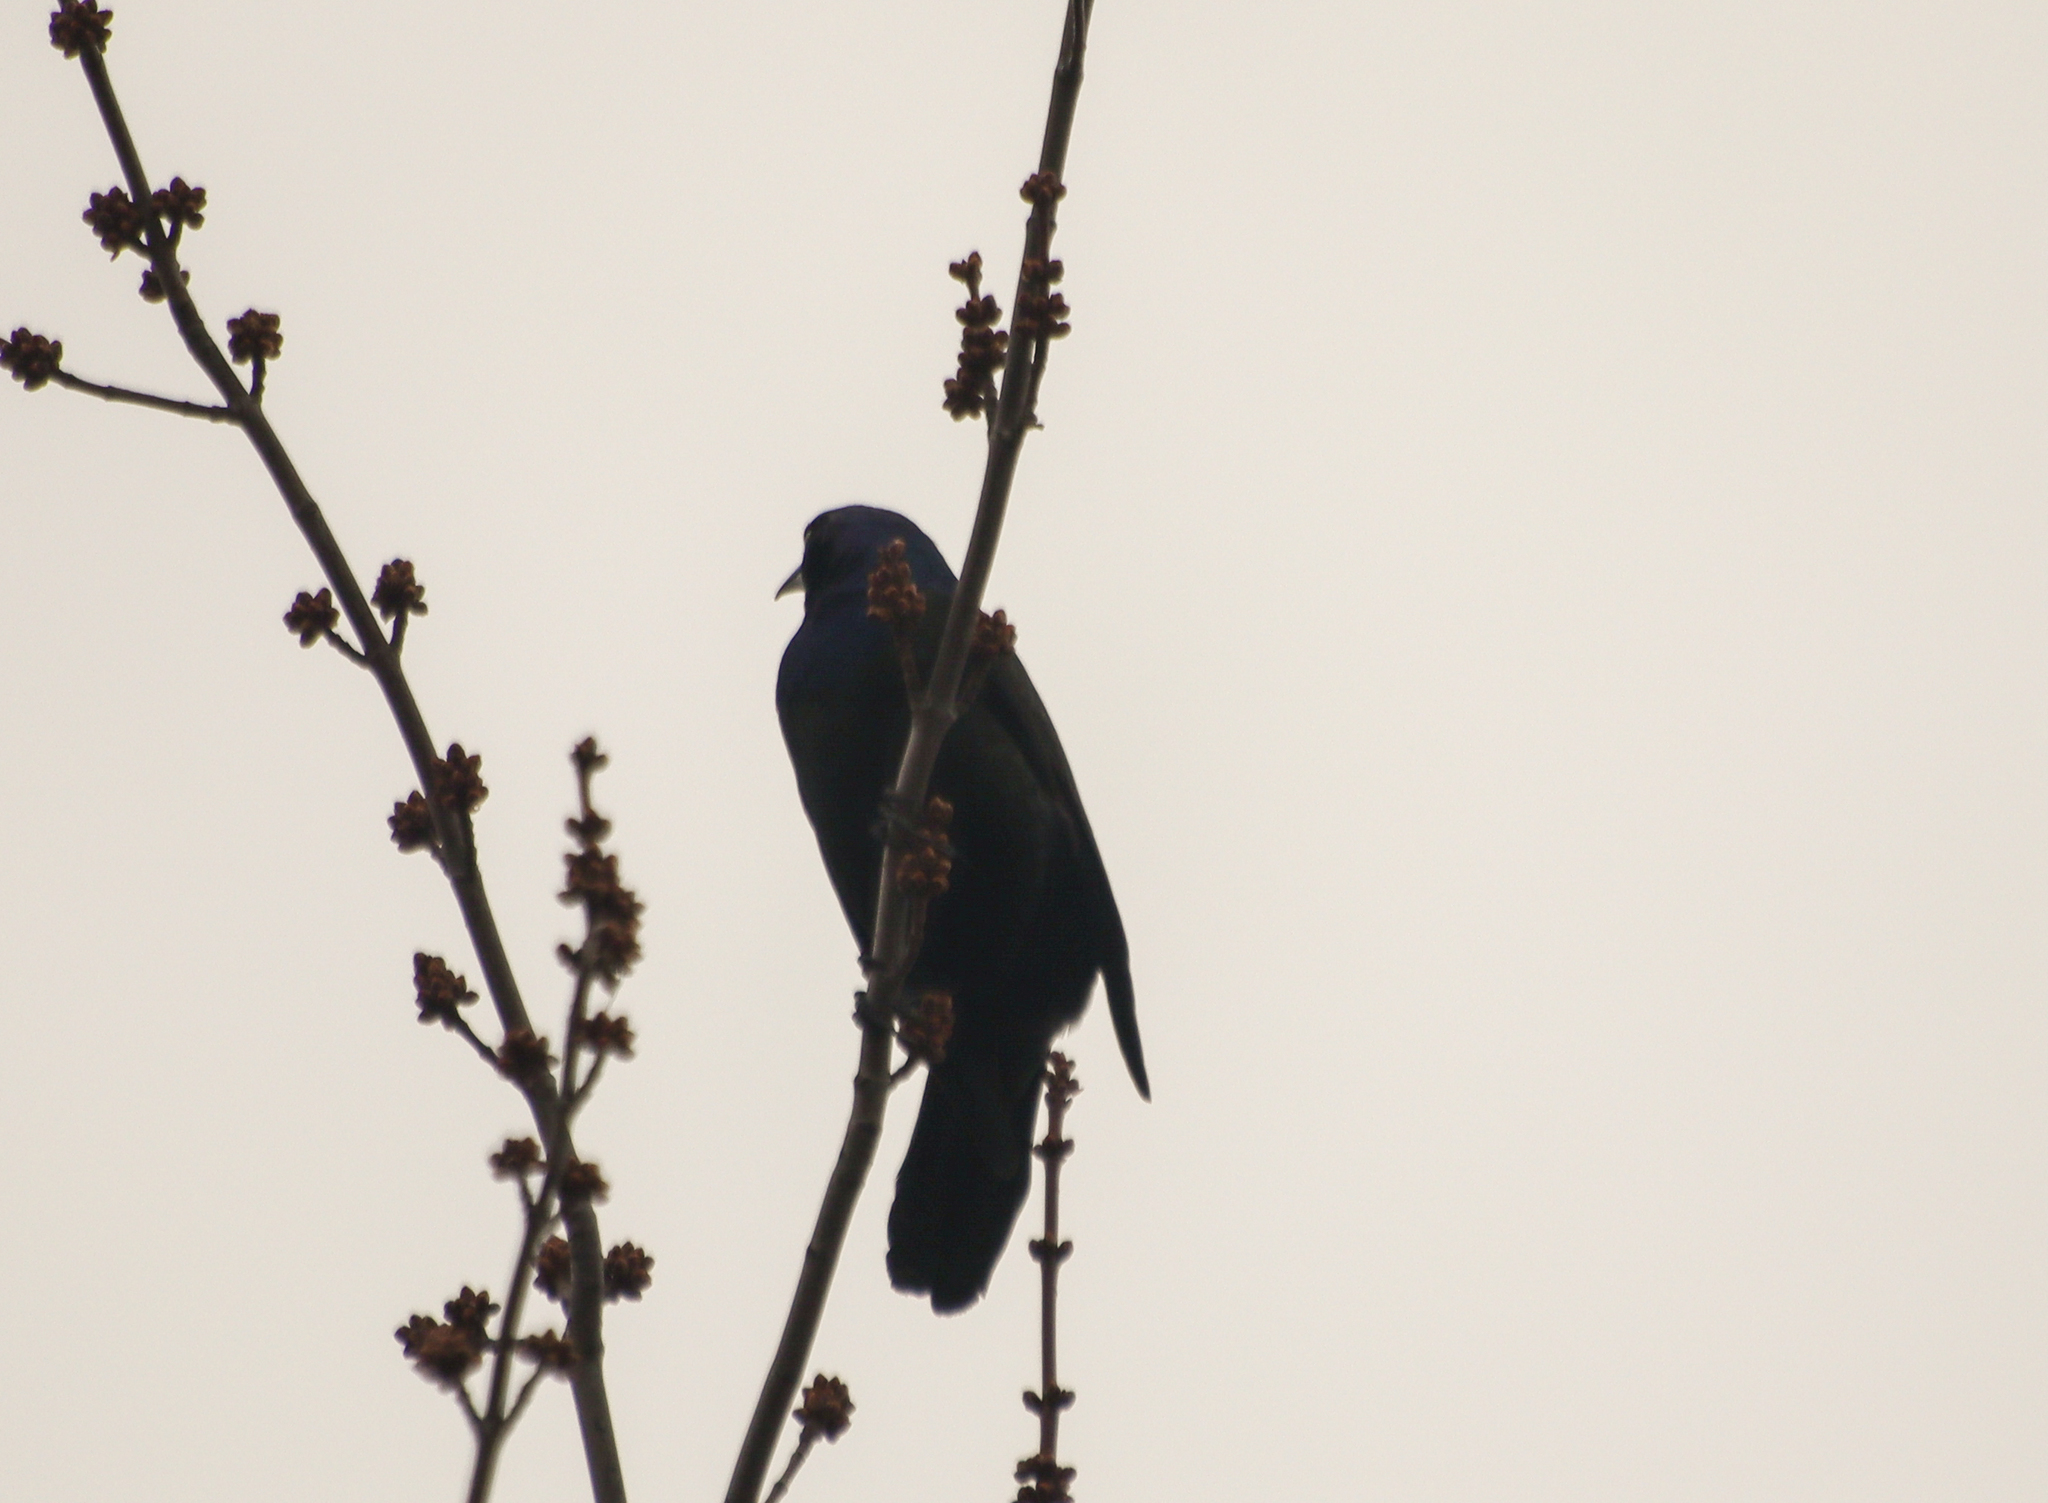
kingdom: Animalia
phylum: Chordata
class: Aves
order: Passeriformes
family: Icteridae
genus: Quiscalus
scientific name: Quiscalus quiscula
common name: Common grackle
